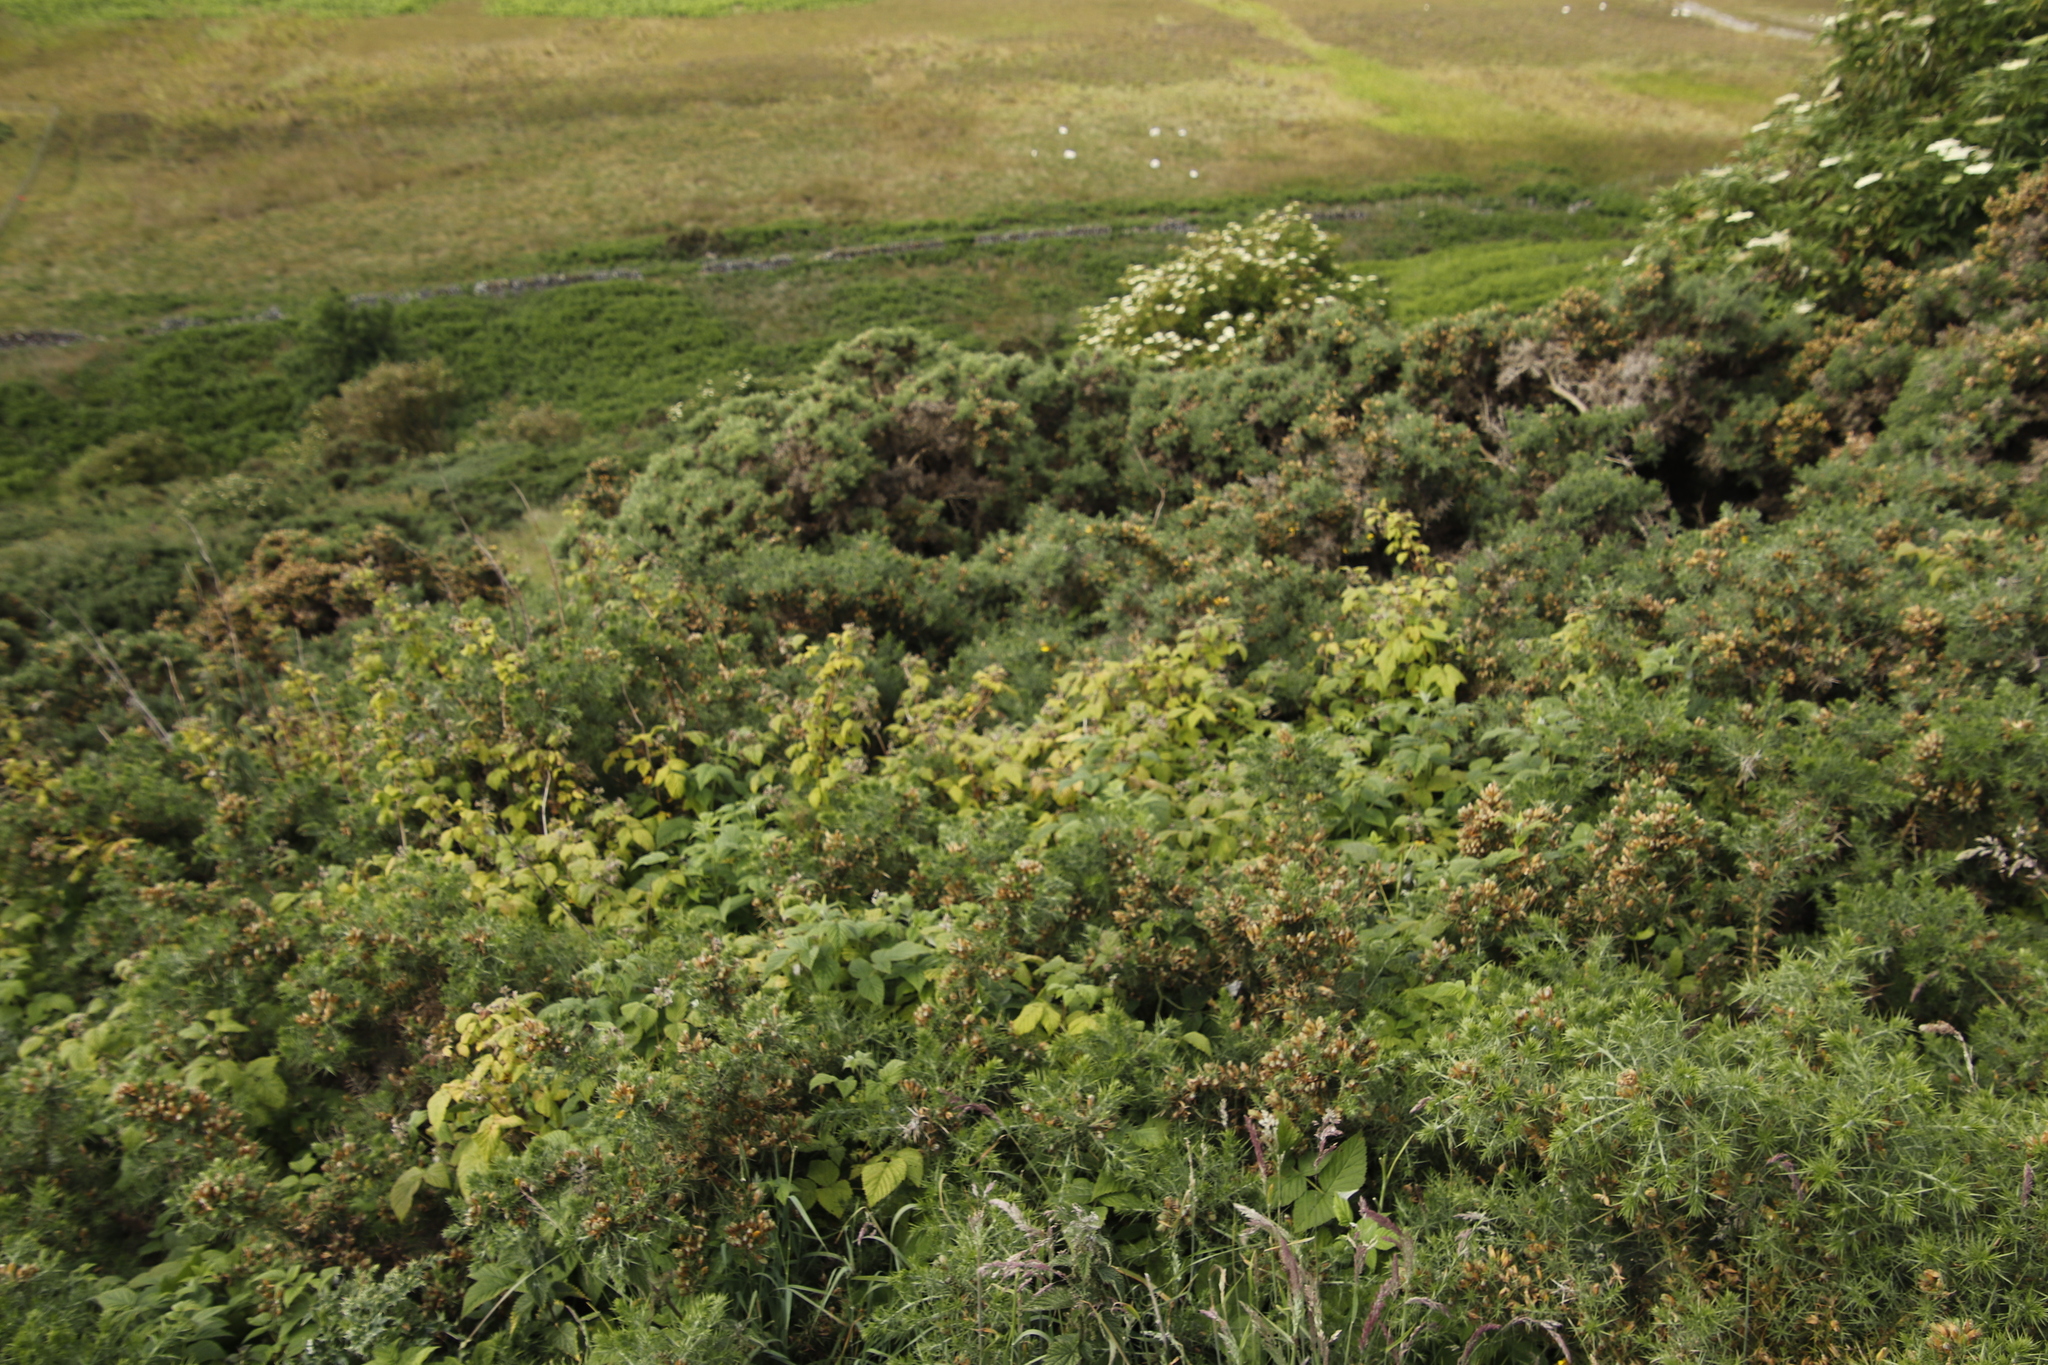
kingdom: Plantae
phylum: Tracheophyta
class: Magnoliopsida
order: Rosales
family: Rosaceae
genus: Rubus
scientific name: Rubus idaeus
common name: Raspberry
